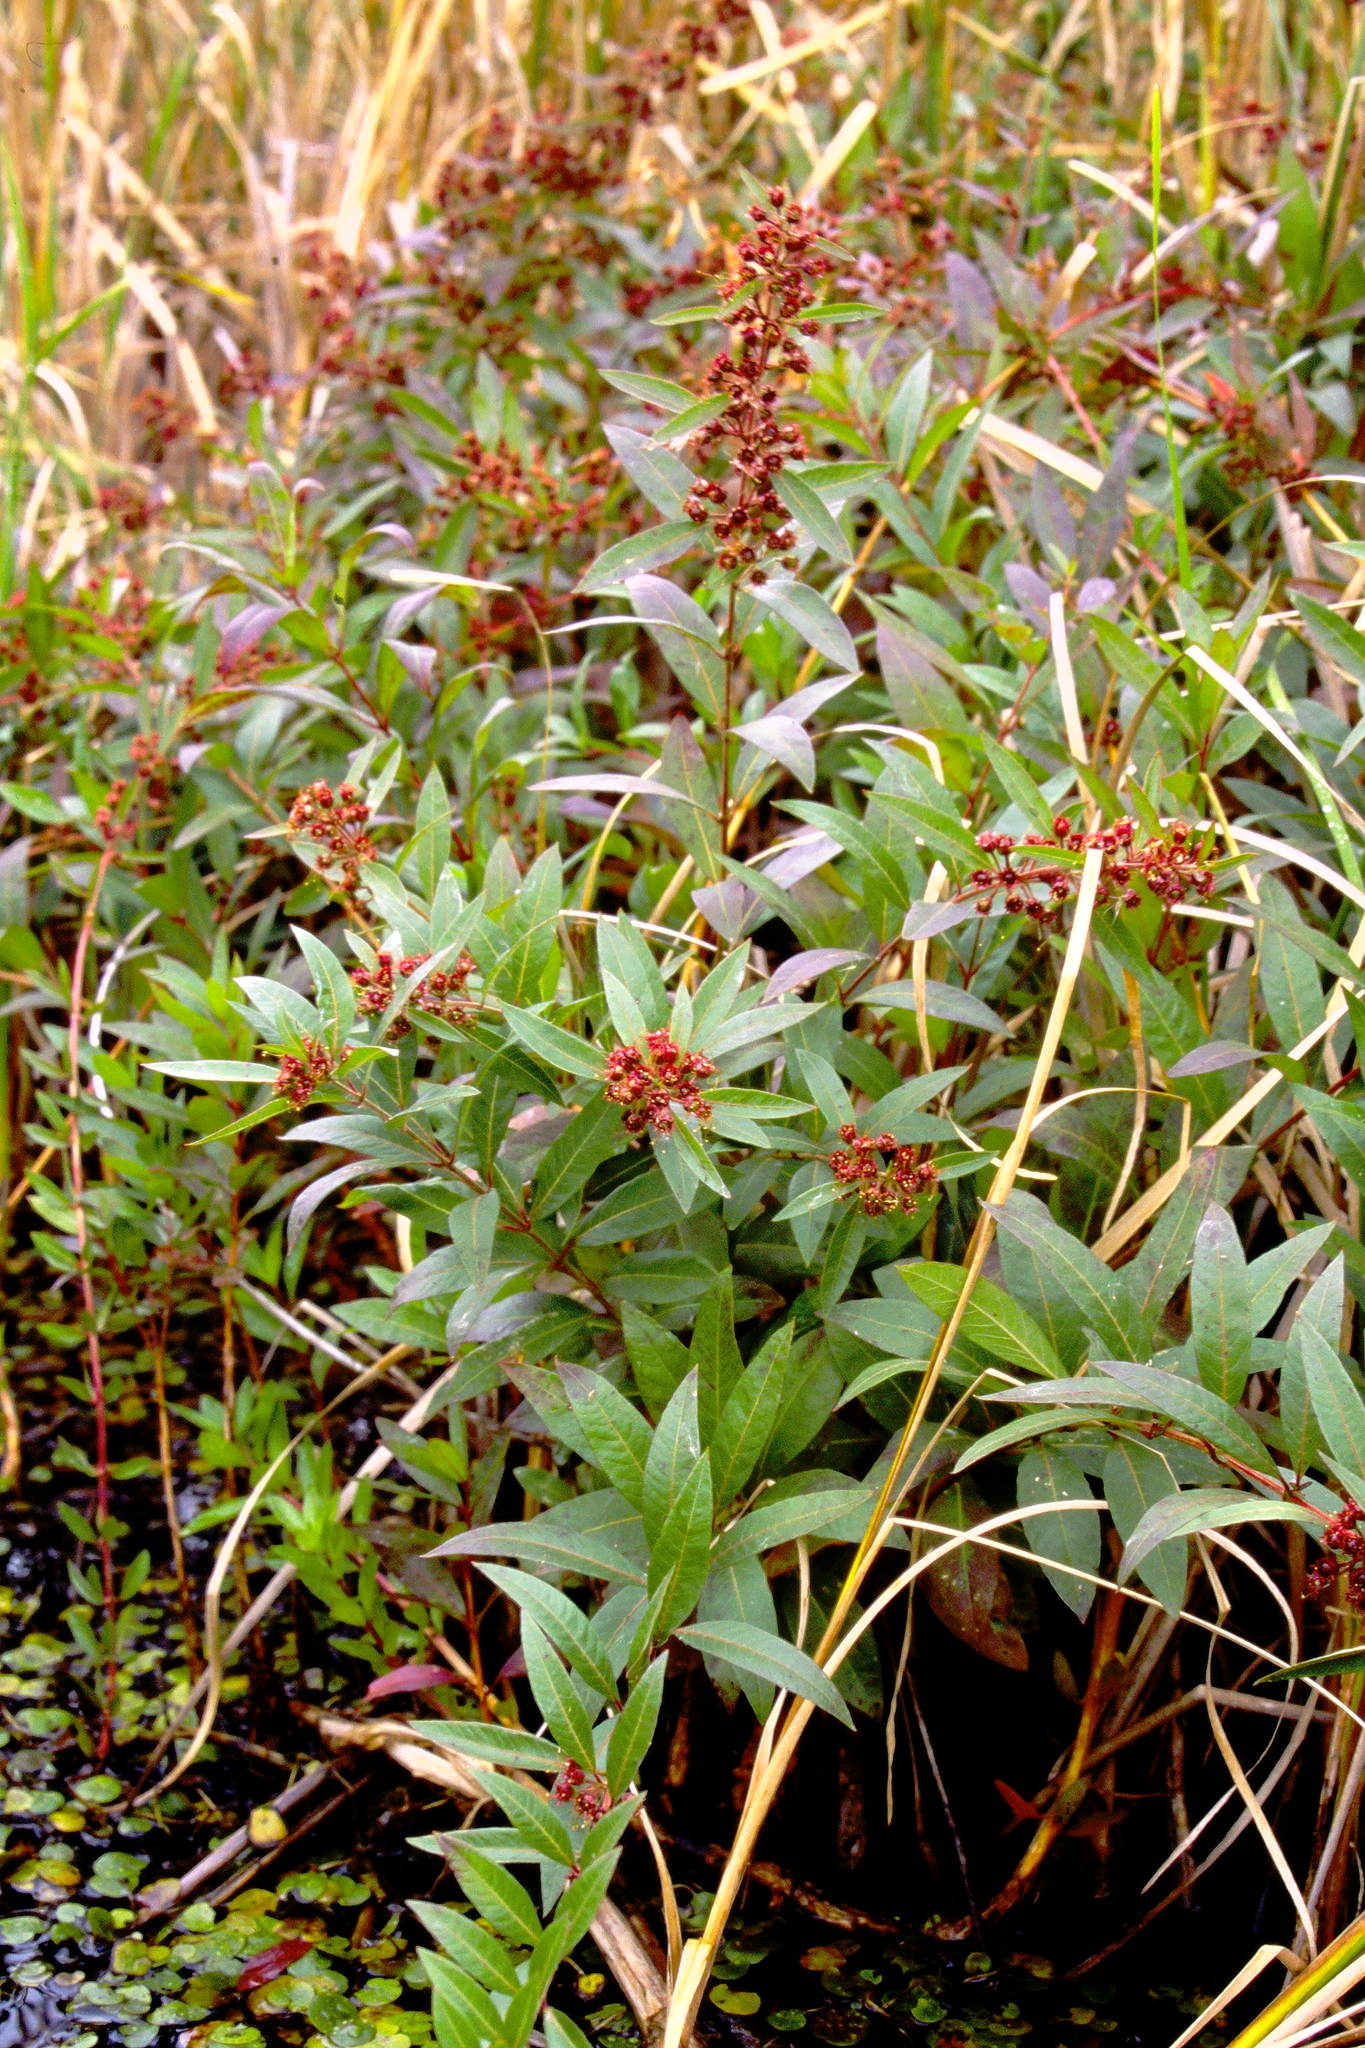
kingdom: Plantae
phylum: Tracheophyta
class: Magnoliopsida
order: Myrtales
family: Lythraceae
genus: Decodon
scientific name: Decodon verticillatus
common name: Hairy swamp loosestrife
